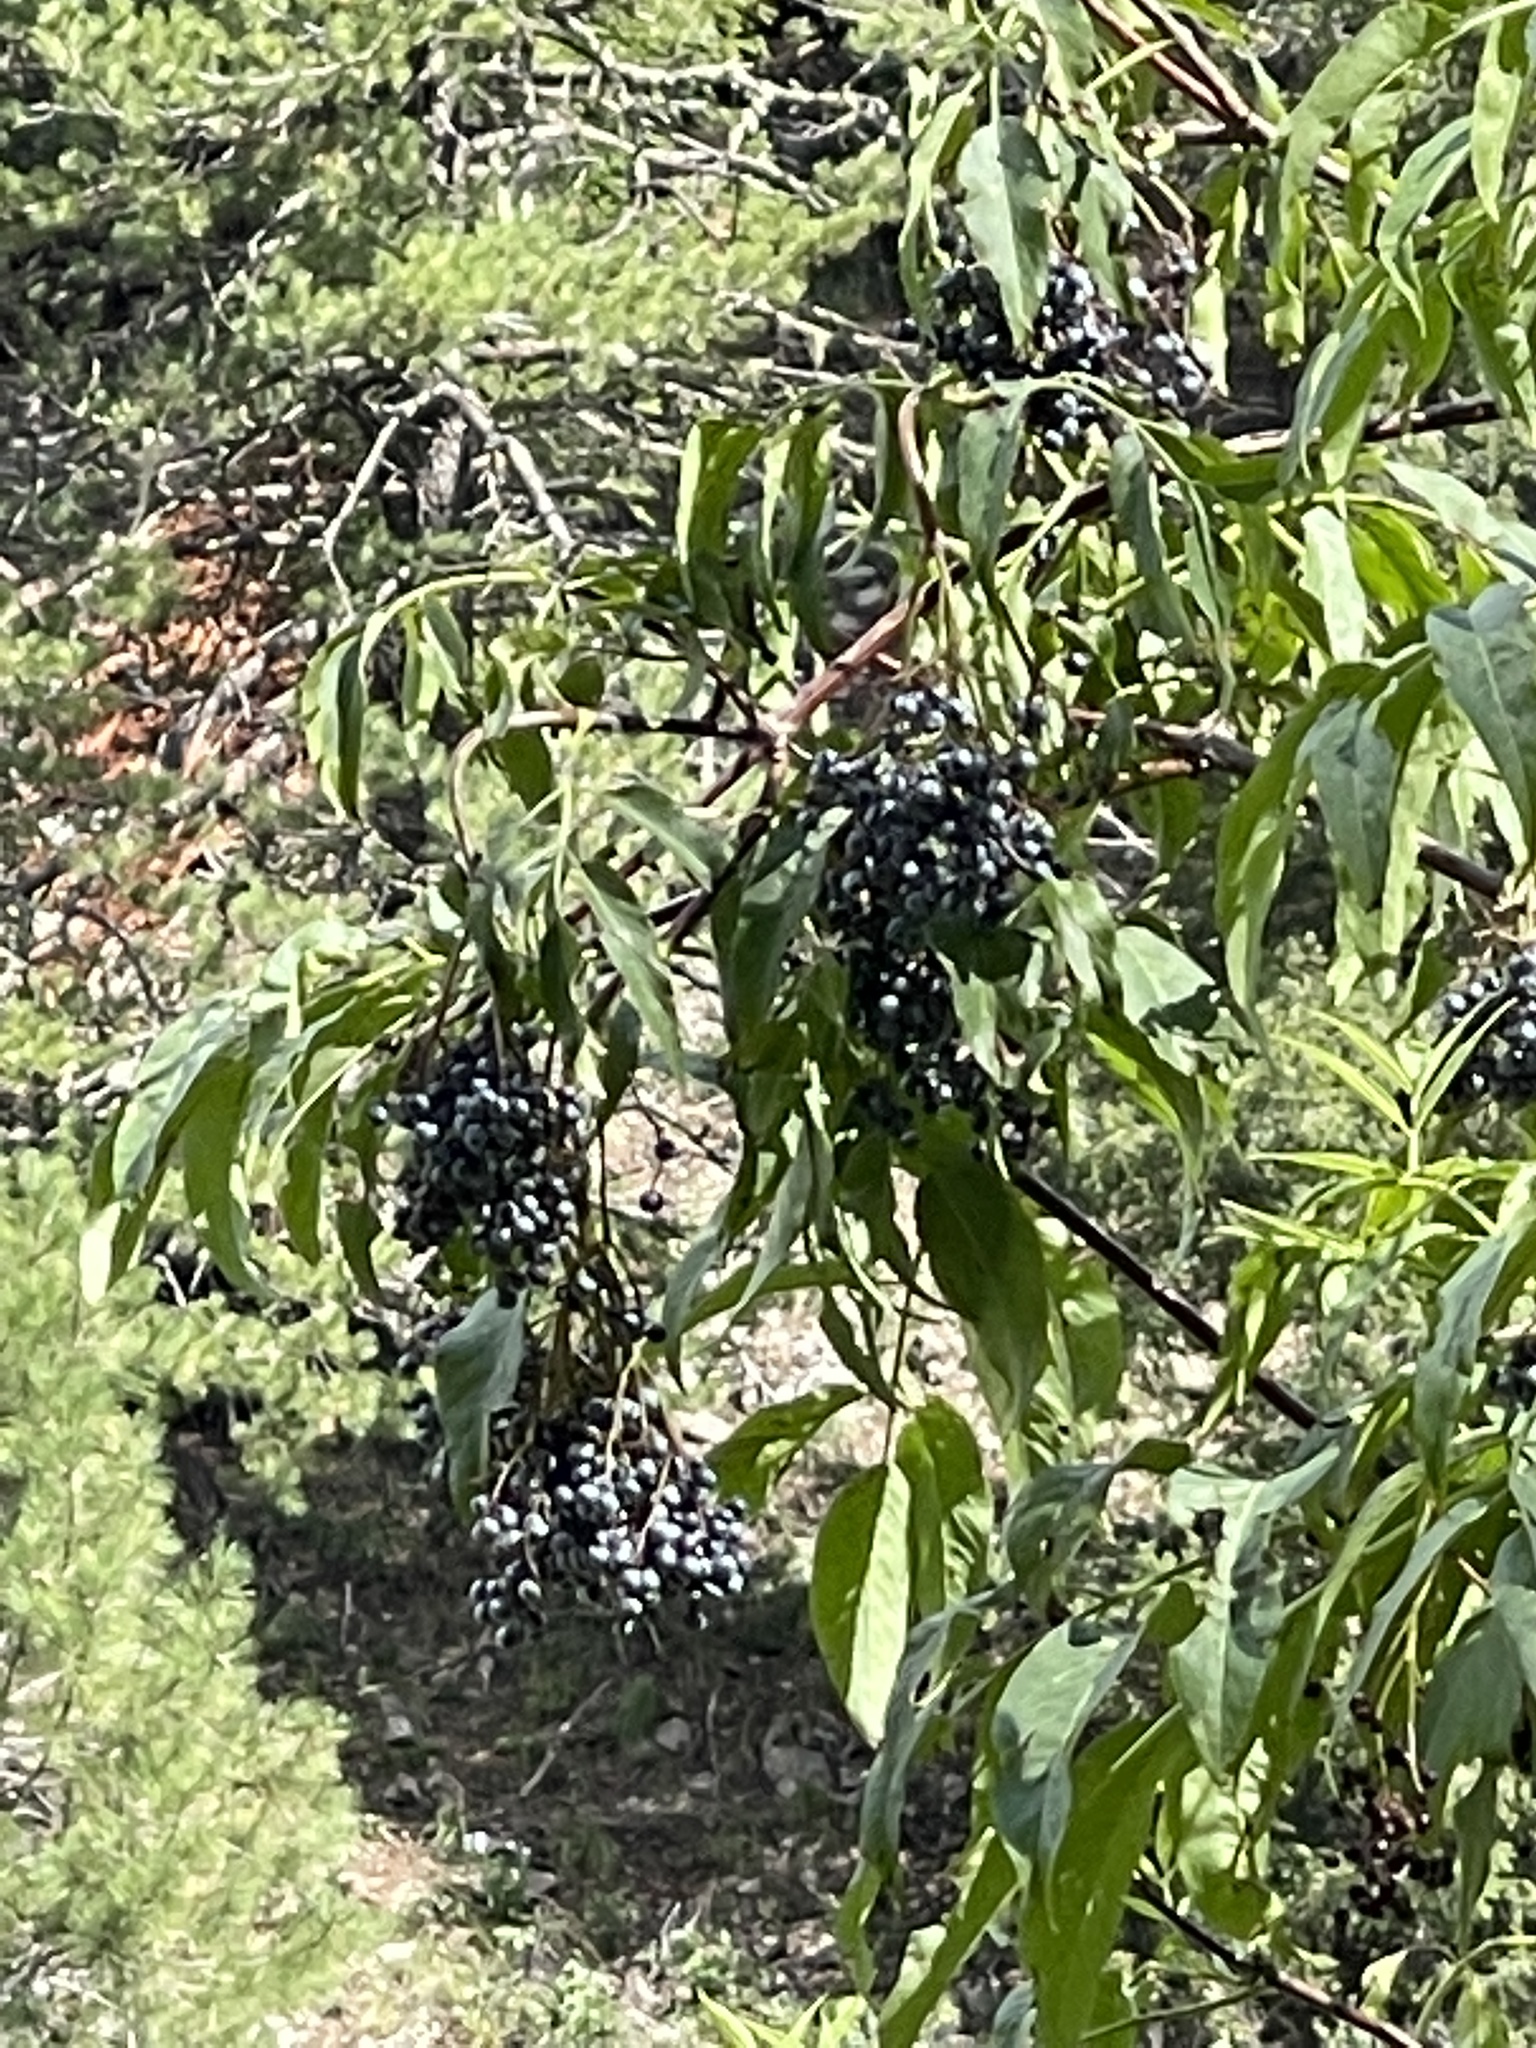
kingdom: Plantae
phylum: Tracheophyta
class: Magnoliopsida
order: Dipsacales
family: Viburnaceae
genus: Sambucus
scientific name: Sambucus cerulea
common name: Blue elder
